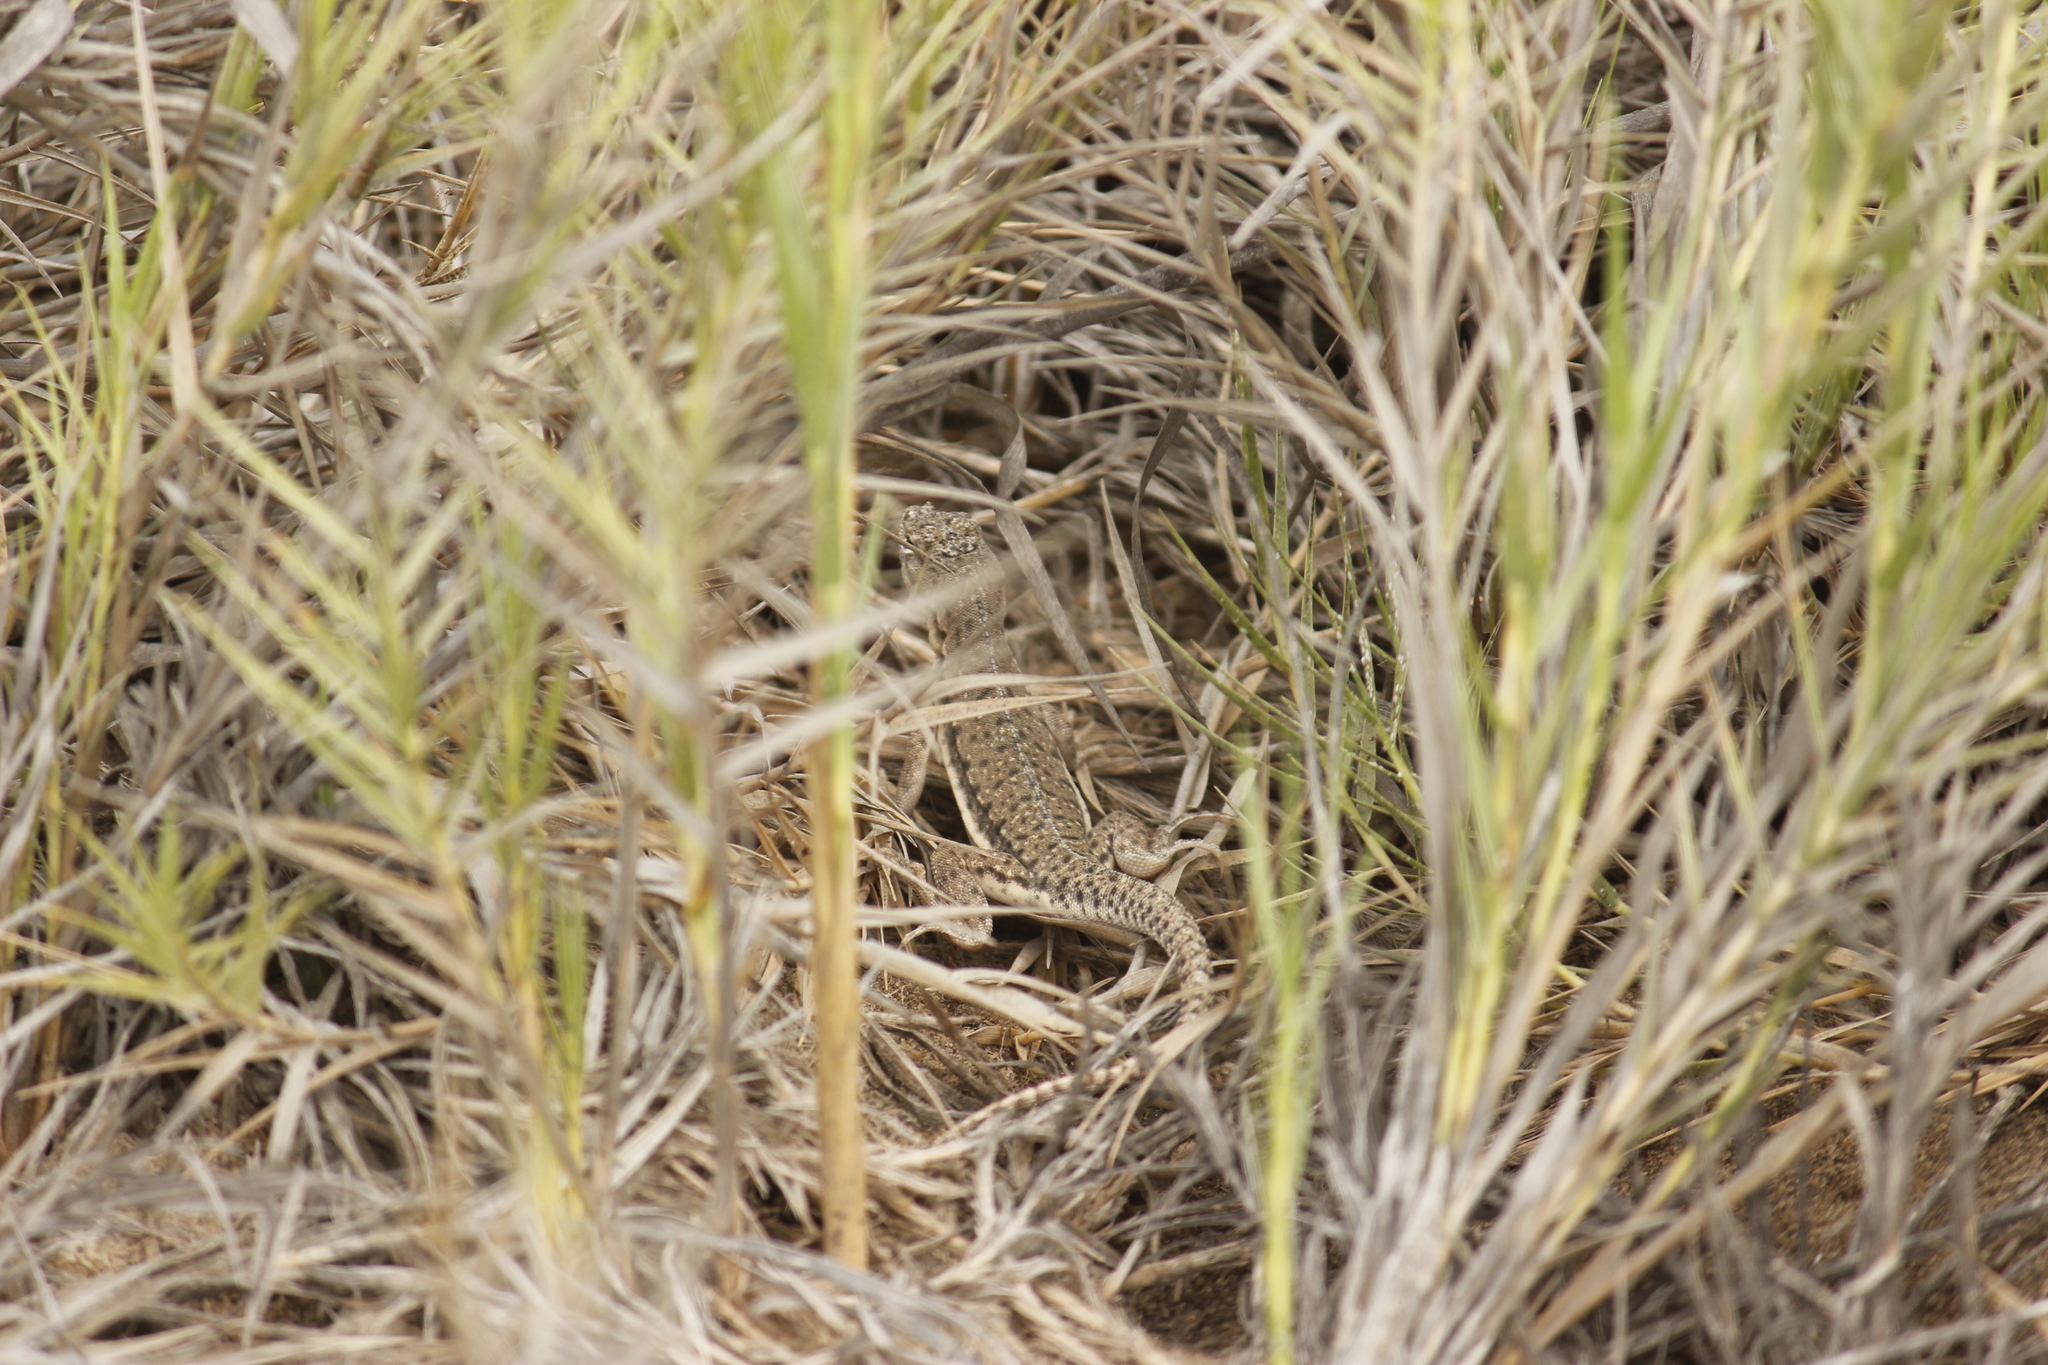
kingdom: Animalia
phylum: Chordata
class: Squamata
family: Tropiduridae
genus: Microlophus
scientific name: Microlophus thoracicus
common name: Tschudi's pacific iguana
